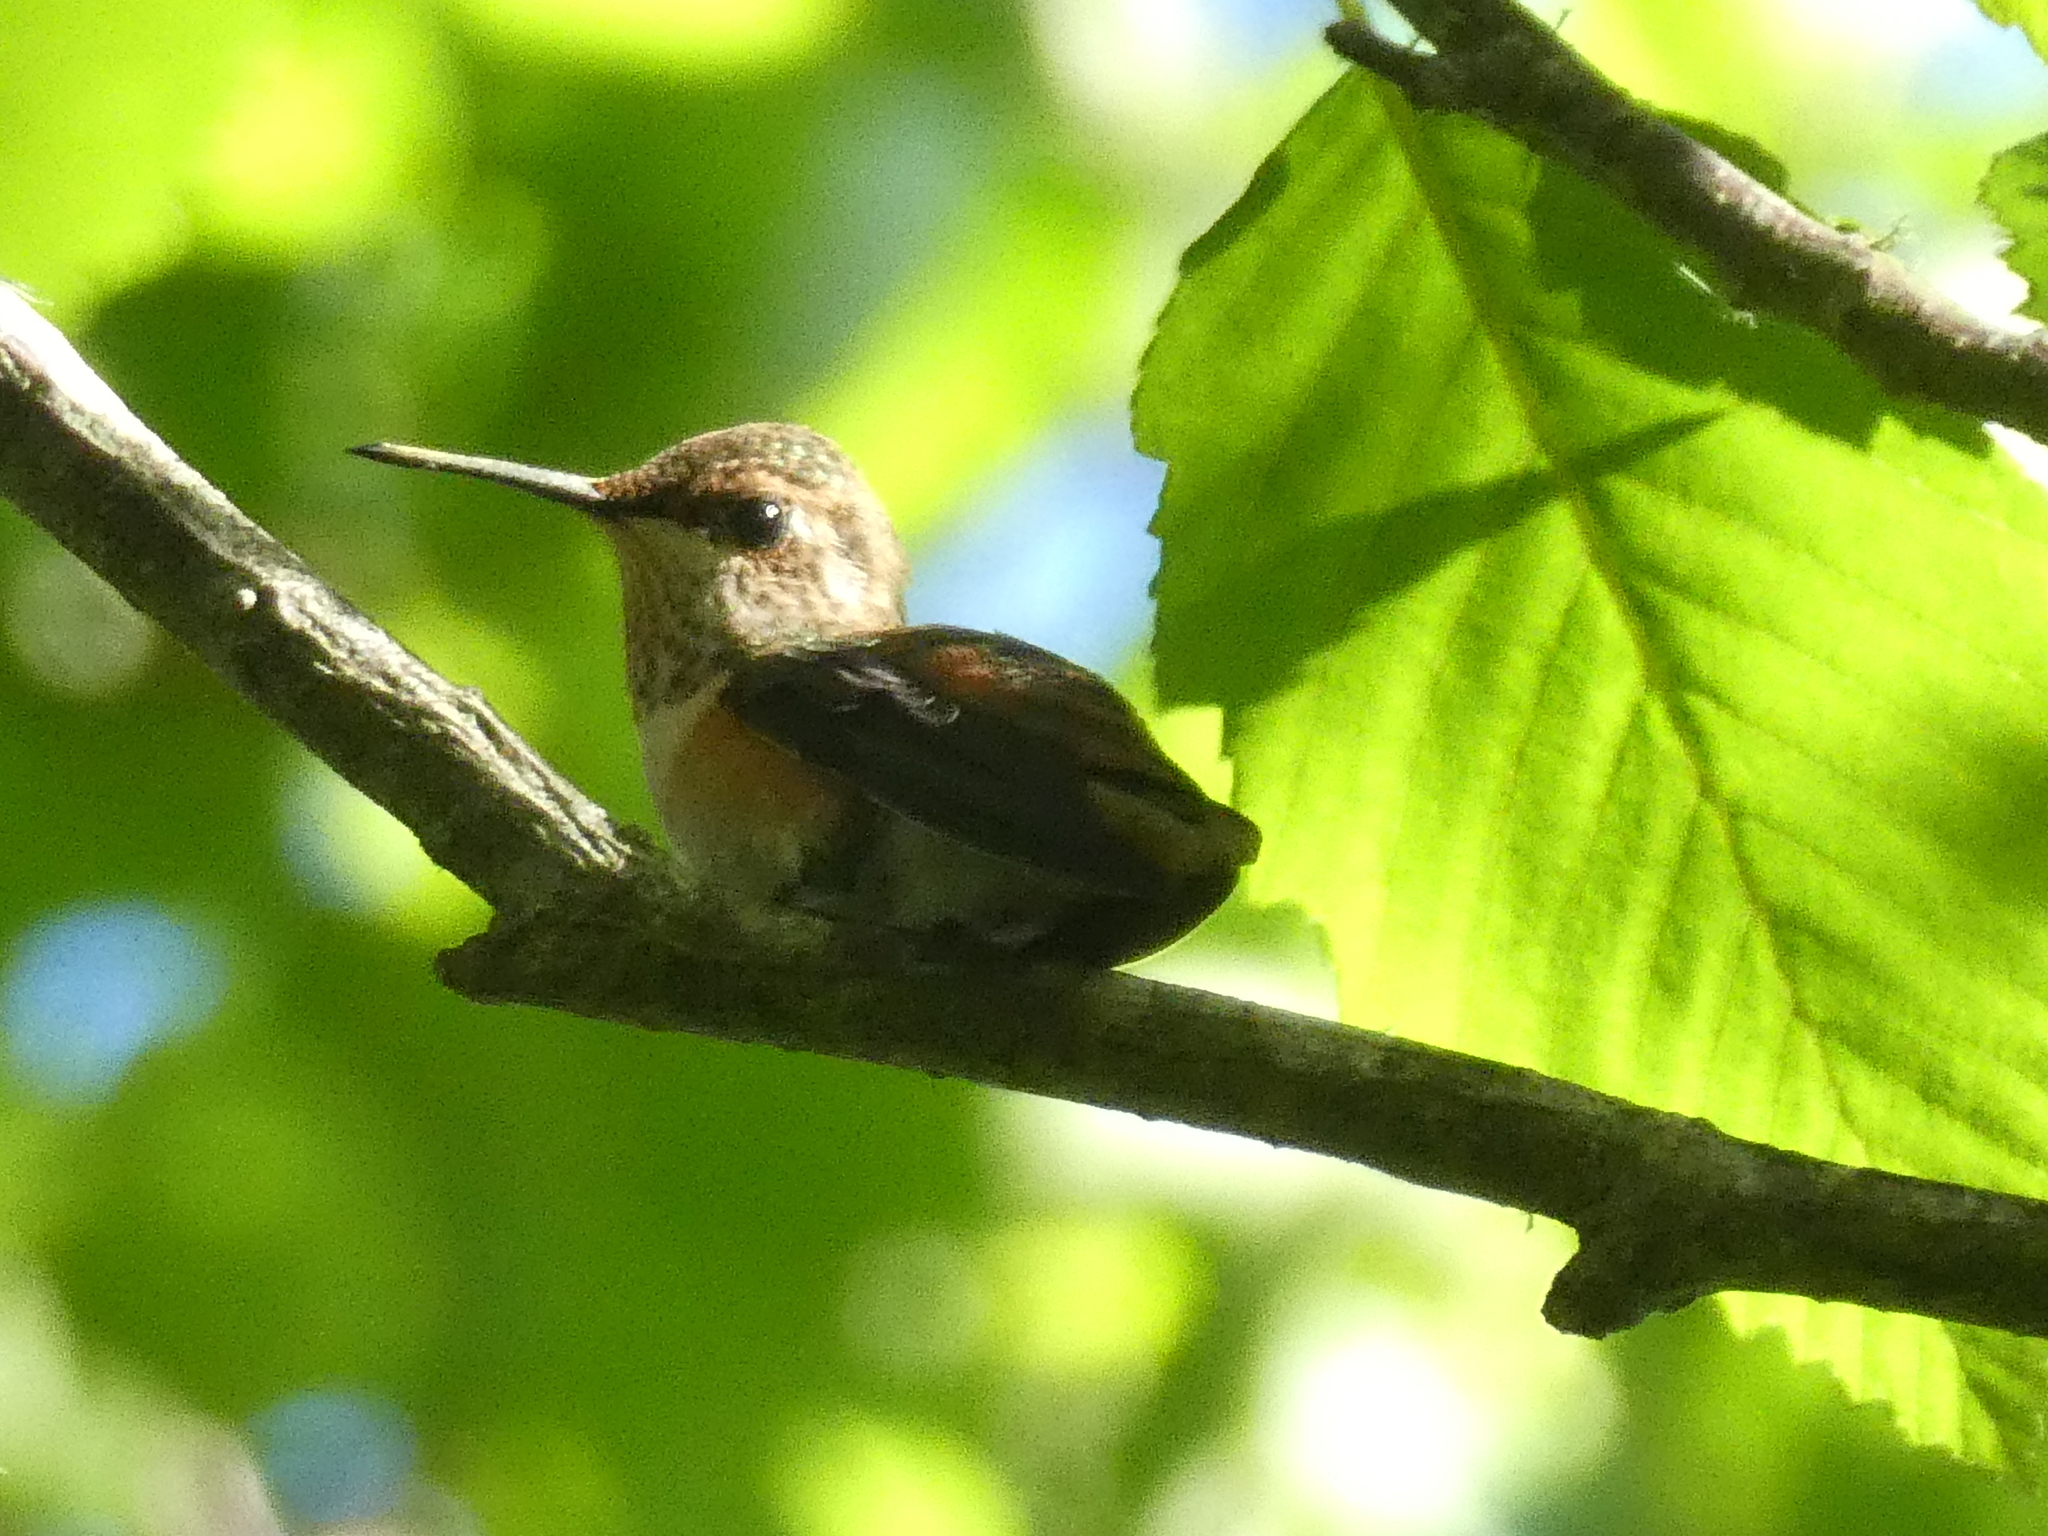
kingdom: Animalia
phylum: Chordata
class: Aves
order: Apodiformes
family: Trochilidae
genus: Selasphorus
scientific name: Selasphorus rufus
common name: Rufous hummingbird
